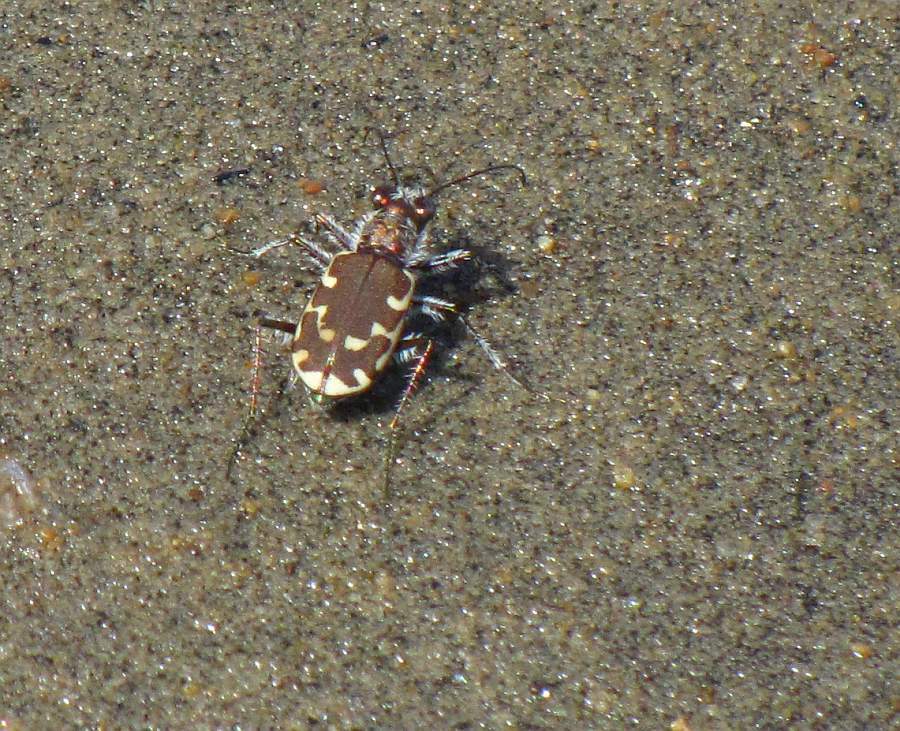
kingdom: Animalia
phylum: Arthropoda
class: Insecta
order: Coleoptera
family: Carabidae
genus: Cicindela
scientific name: Cicindela repanda
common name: Bronzed tiger beetle
